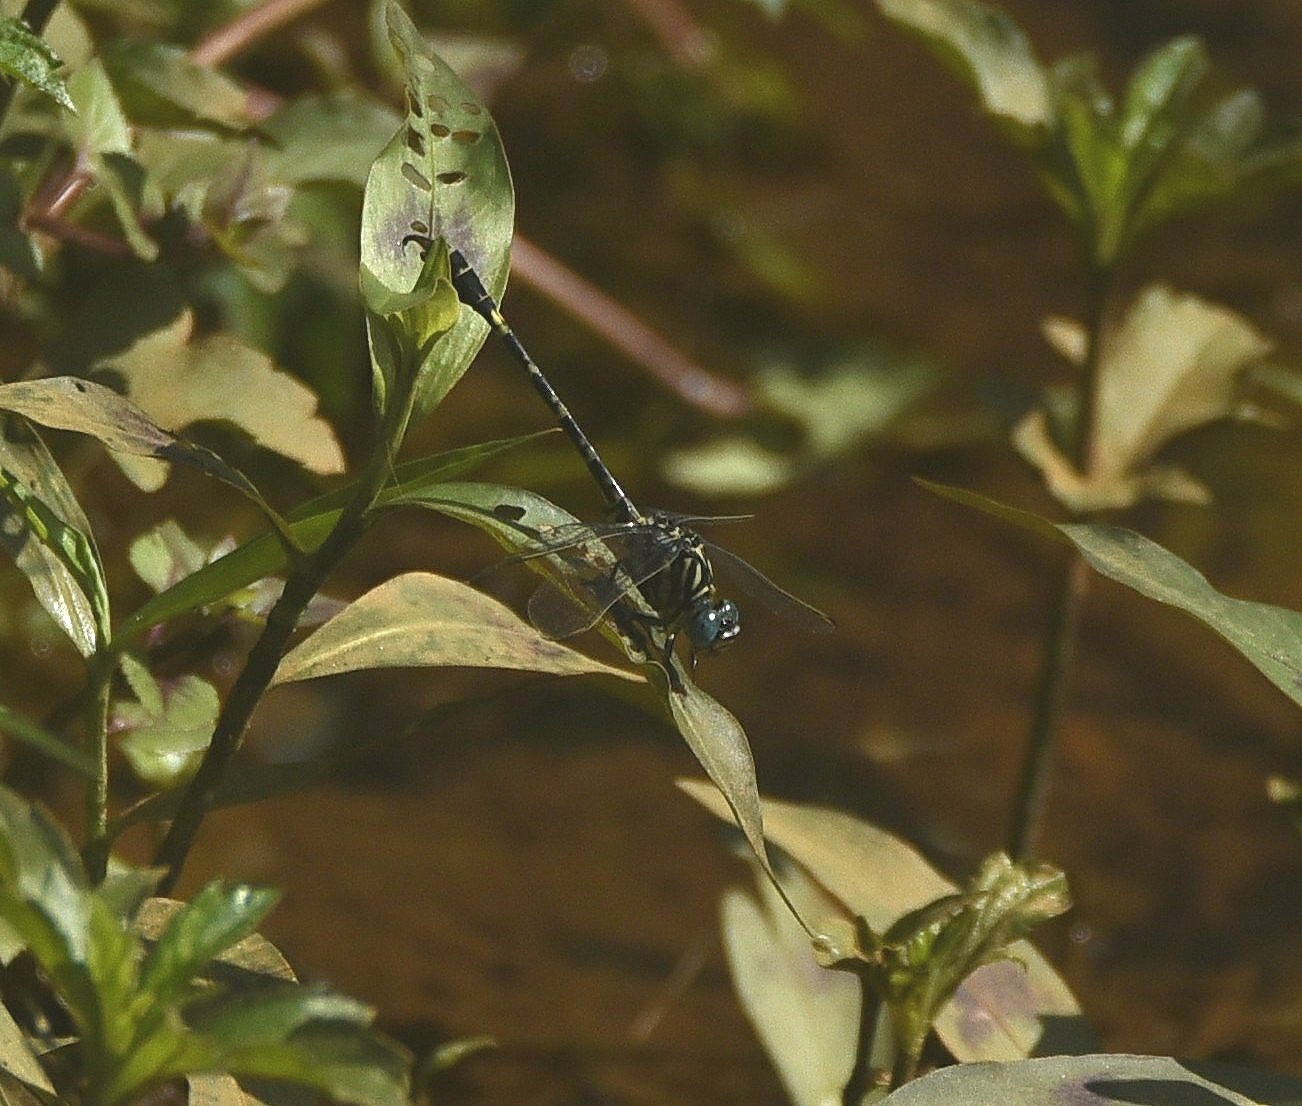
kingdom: Animalia
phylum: Arthropoda
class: Insecta
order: Odonata
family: Gomphidae
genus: Paragomphus
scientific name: Paragomphus lineatus
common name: Lined hooktail
